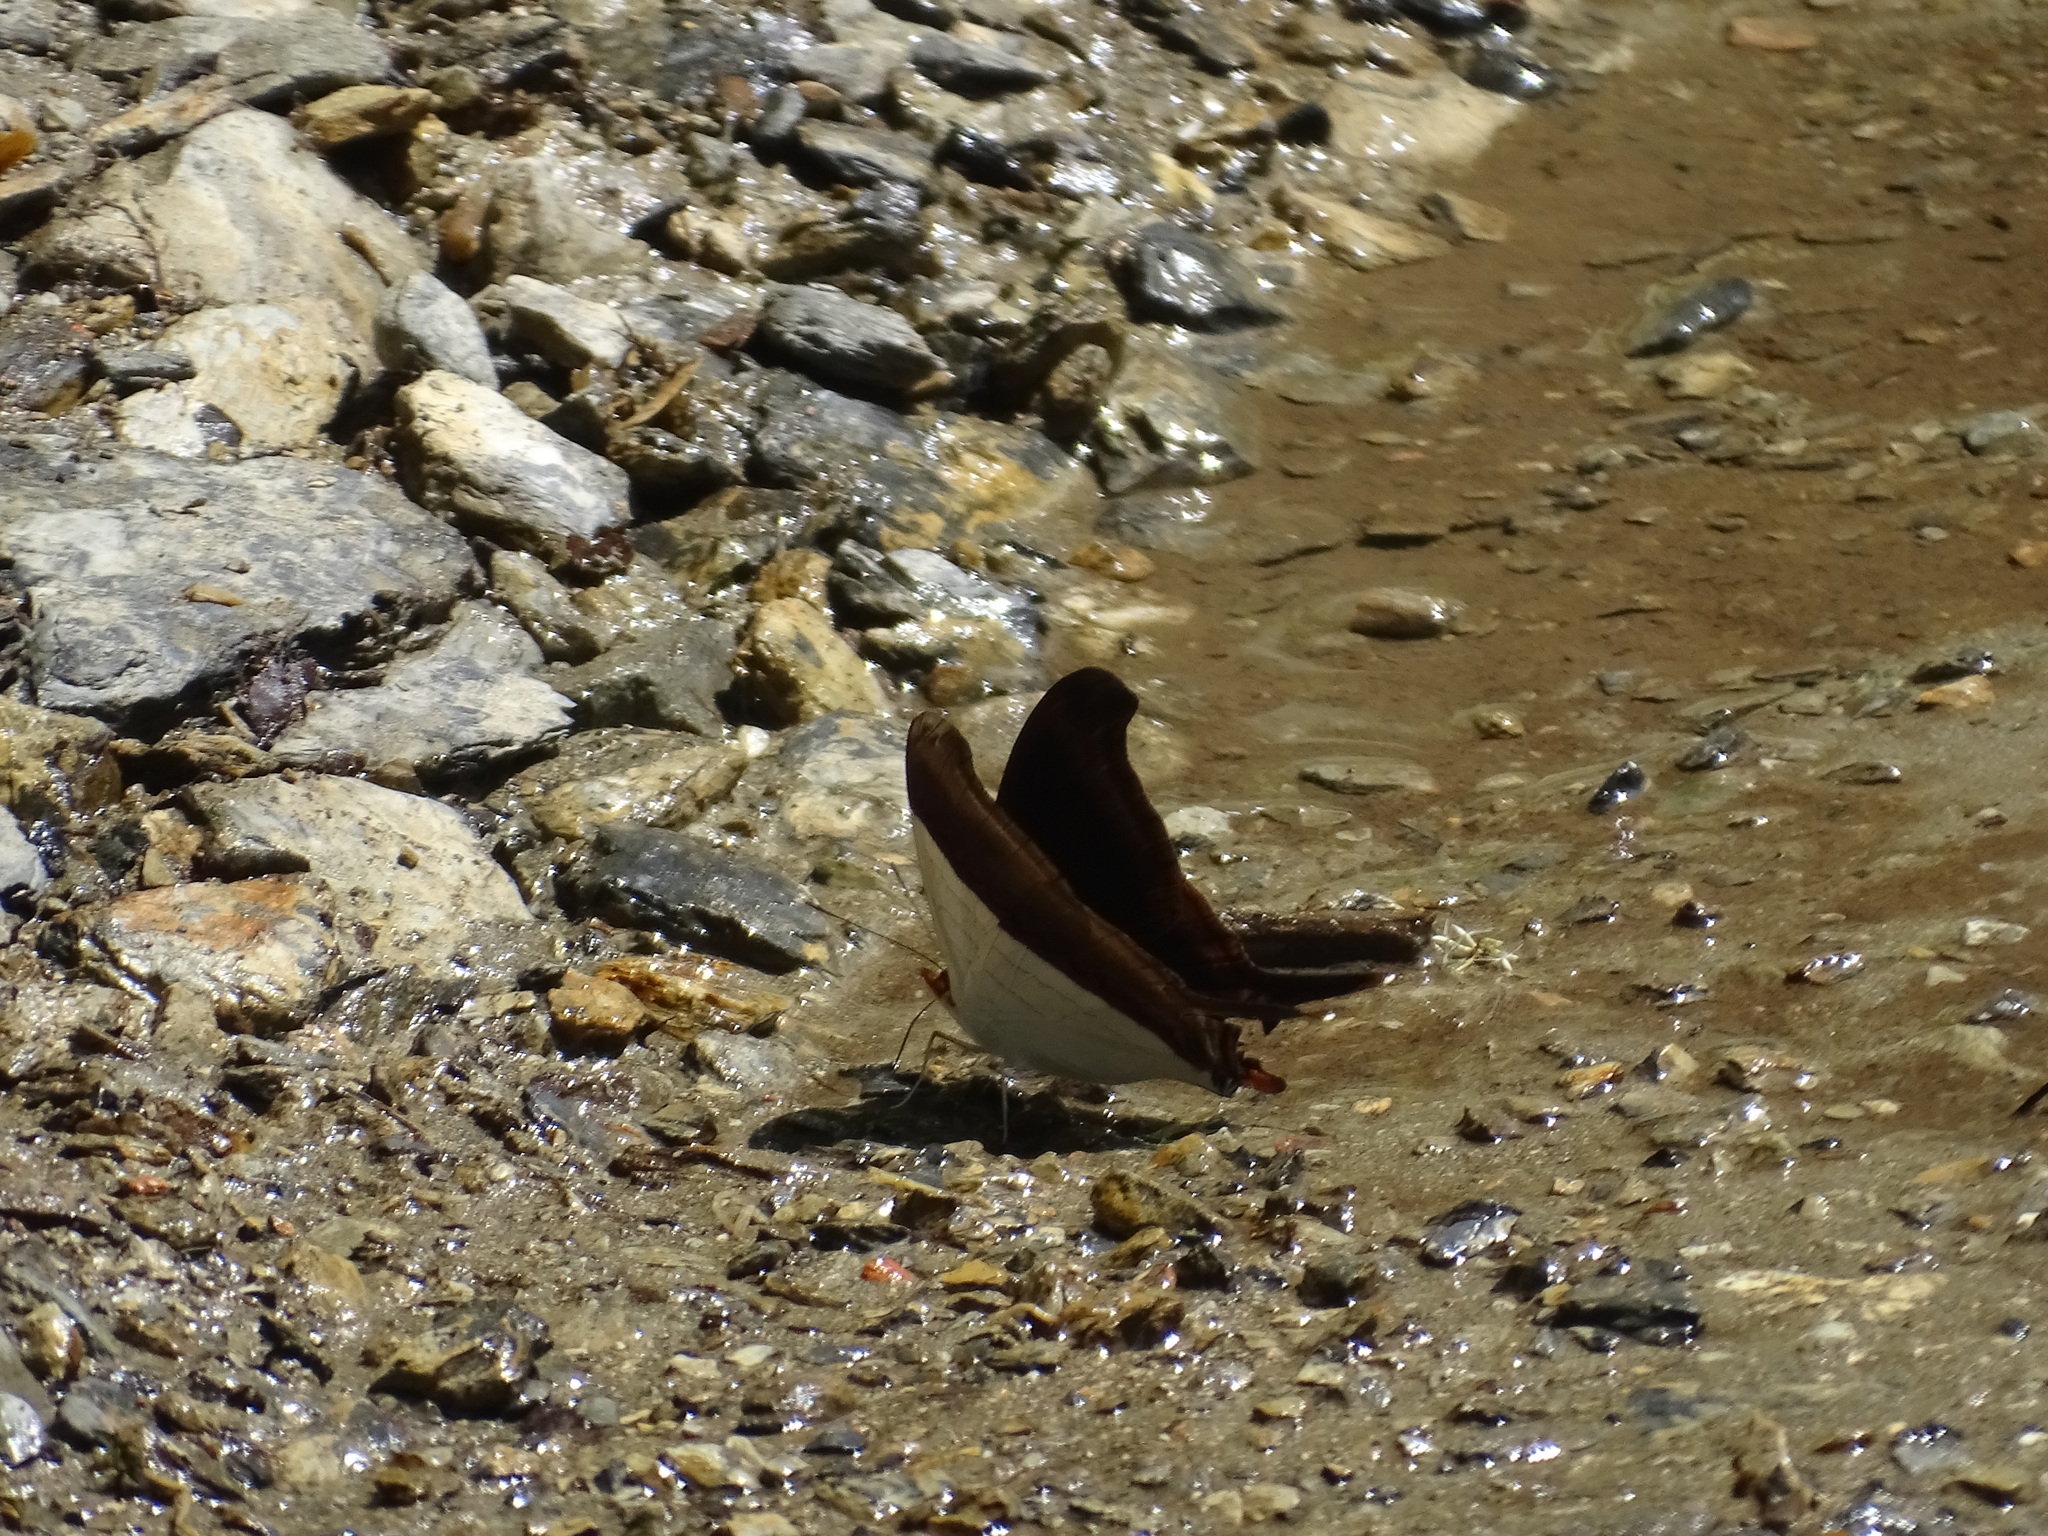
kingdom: Animalia
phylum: Arthropoda
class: Insecta
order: Lepidoptera
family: Nymphalidae
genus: Marpesia
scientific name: Marpesia zerynthia
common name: Waiter daggerwing
